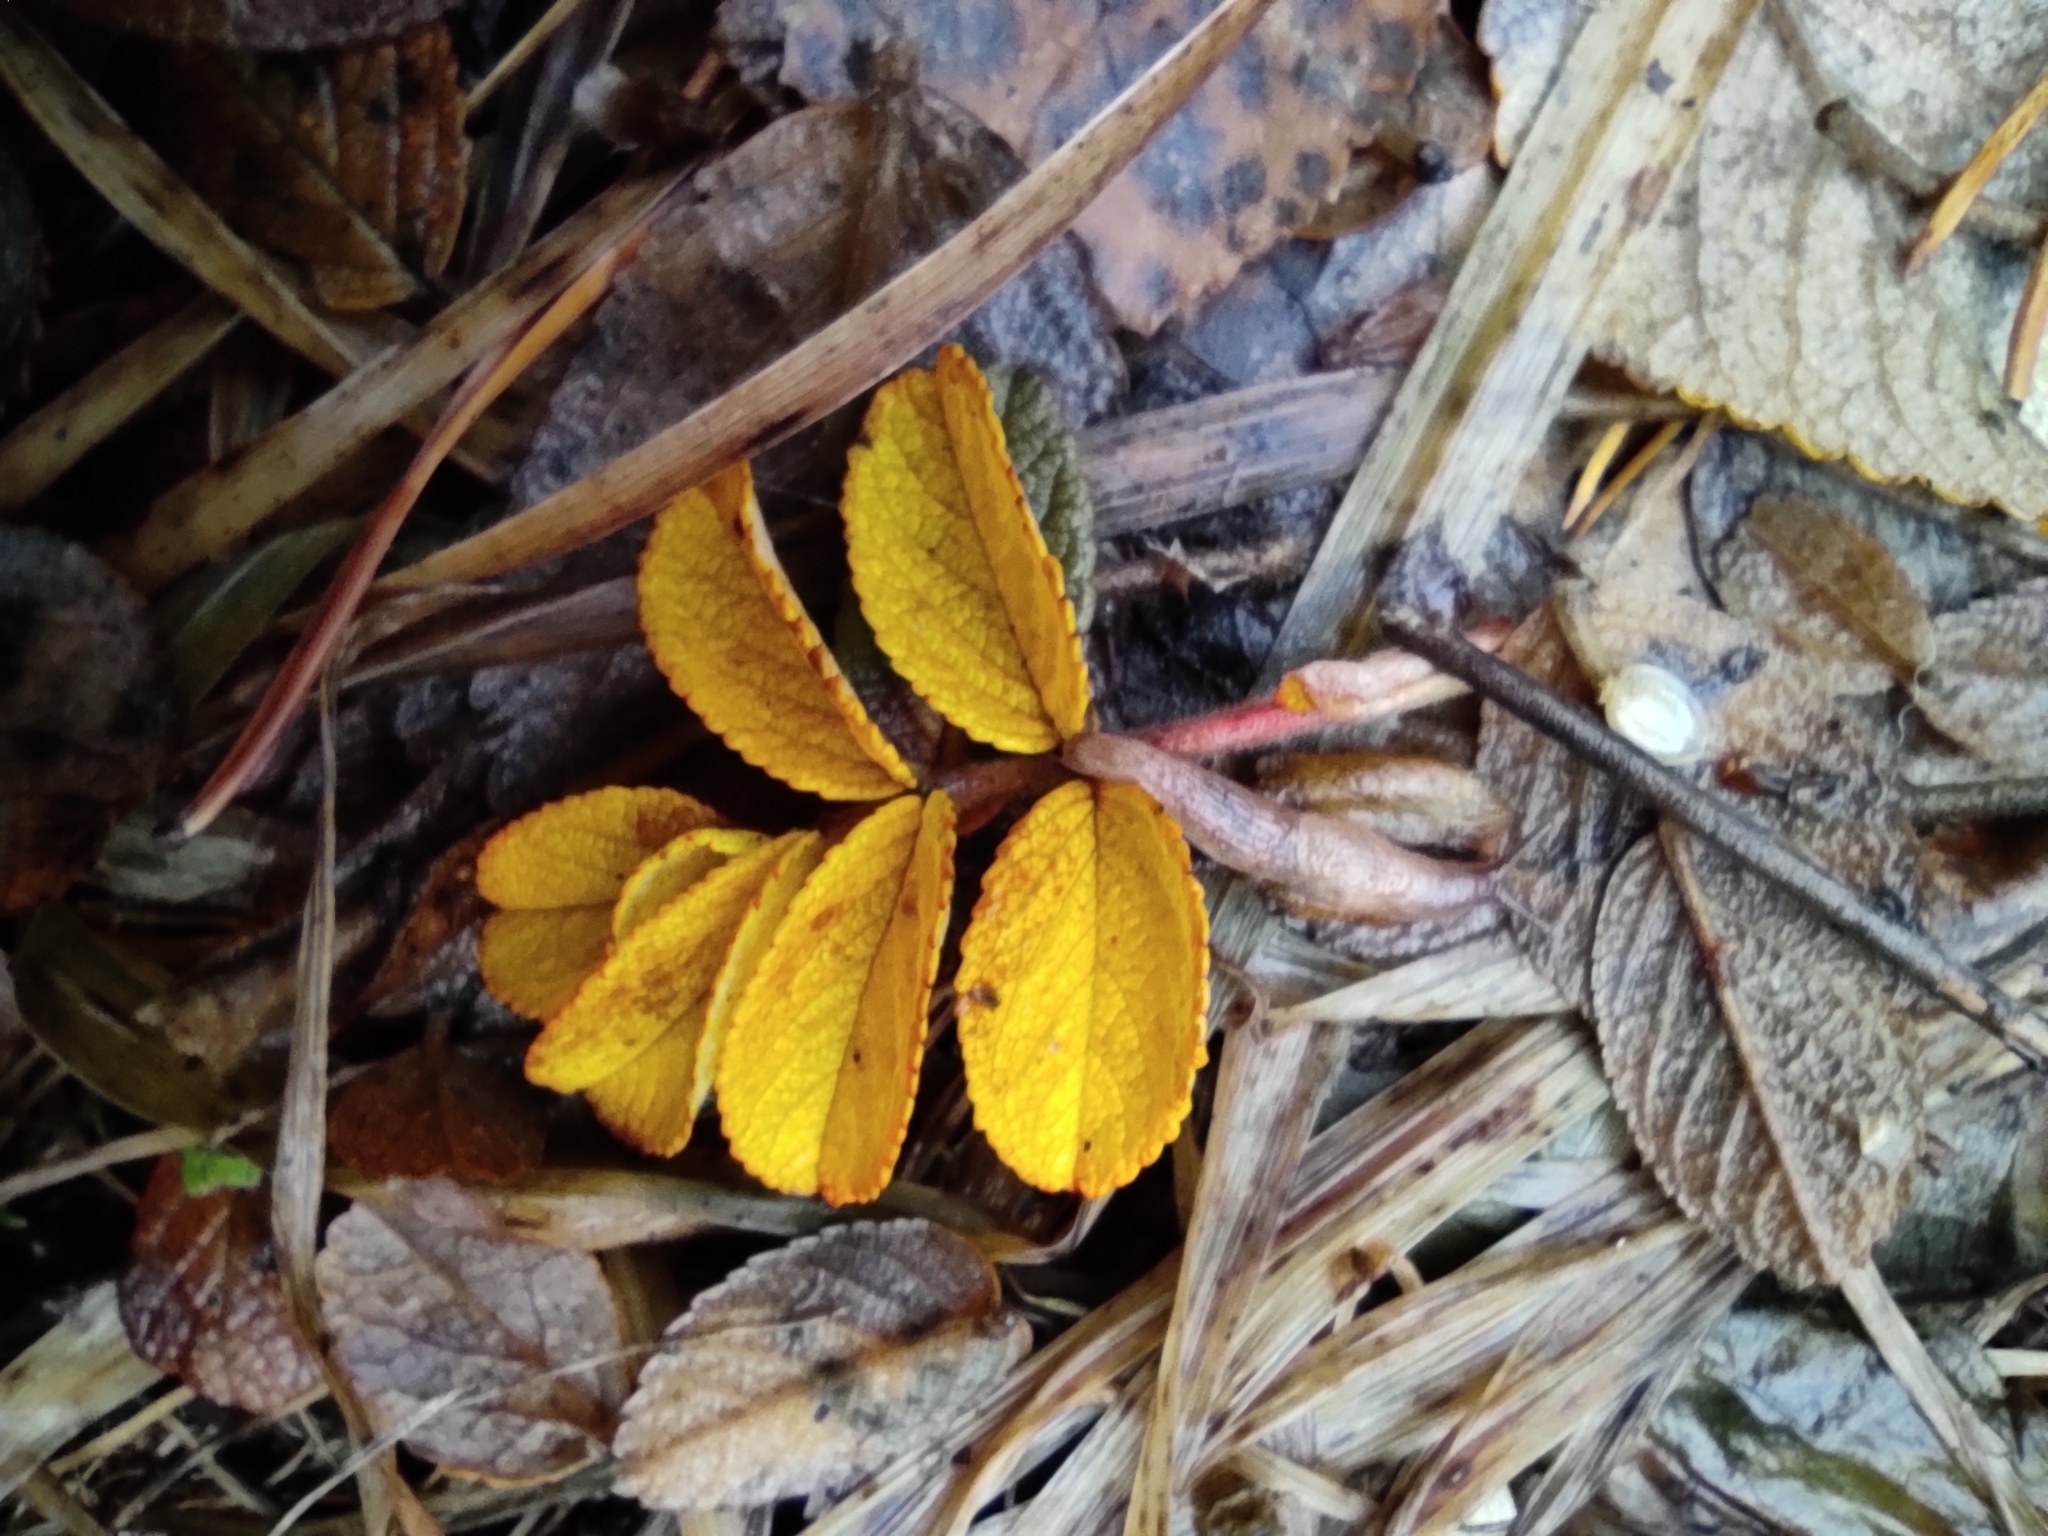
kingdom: Plantae
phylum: Tracheophyta
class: Magnoliopsida
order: Rosales
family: Rosaceae
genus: Rosa
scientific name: Rosa rugosa
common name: Japanese rose
